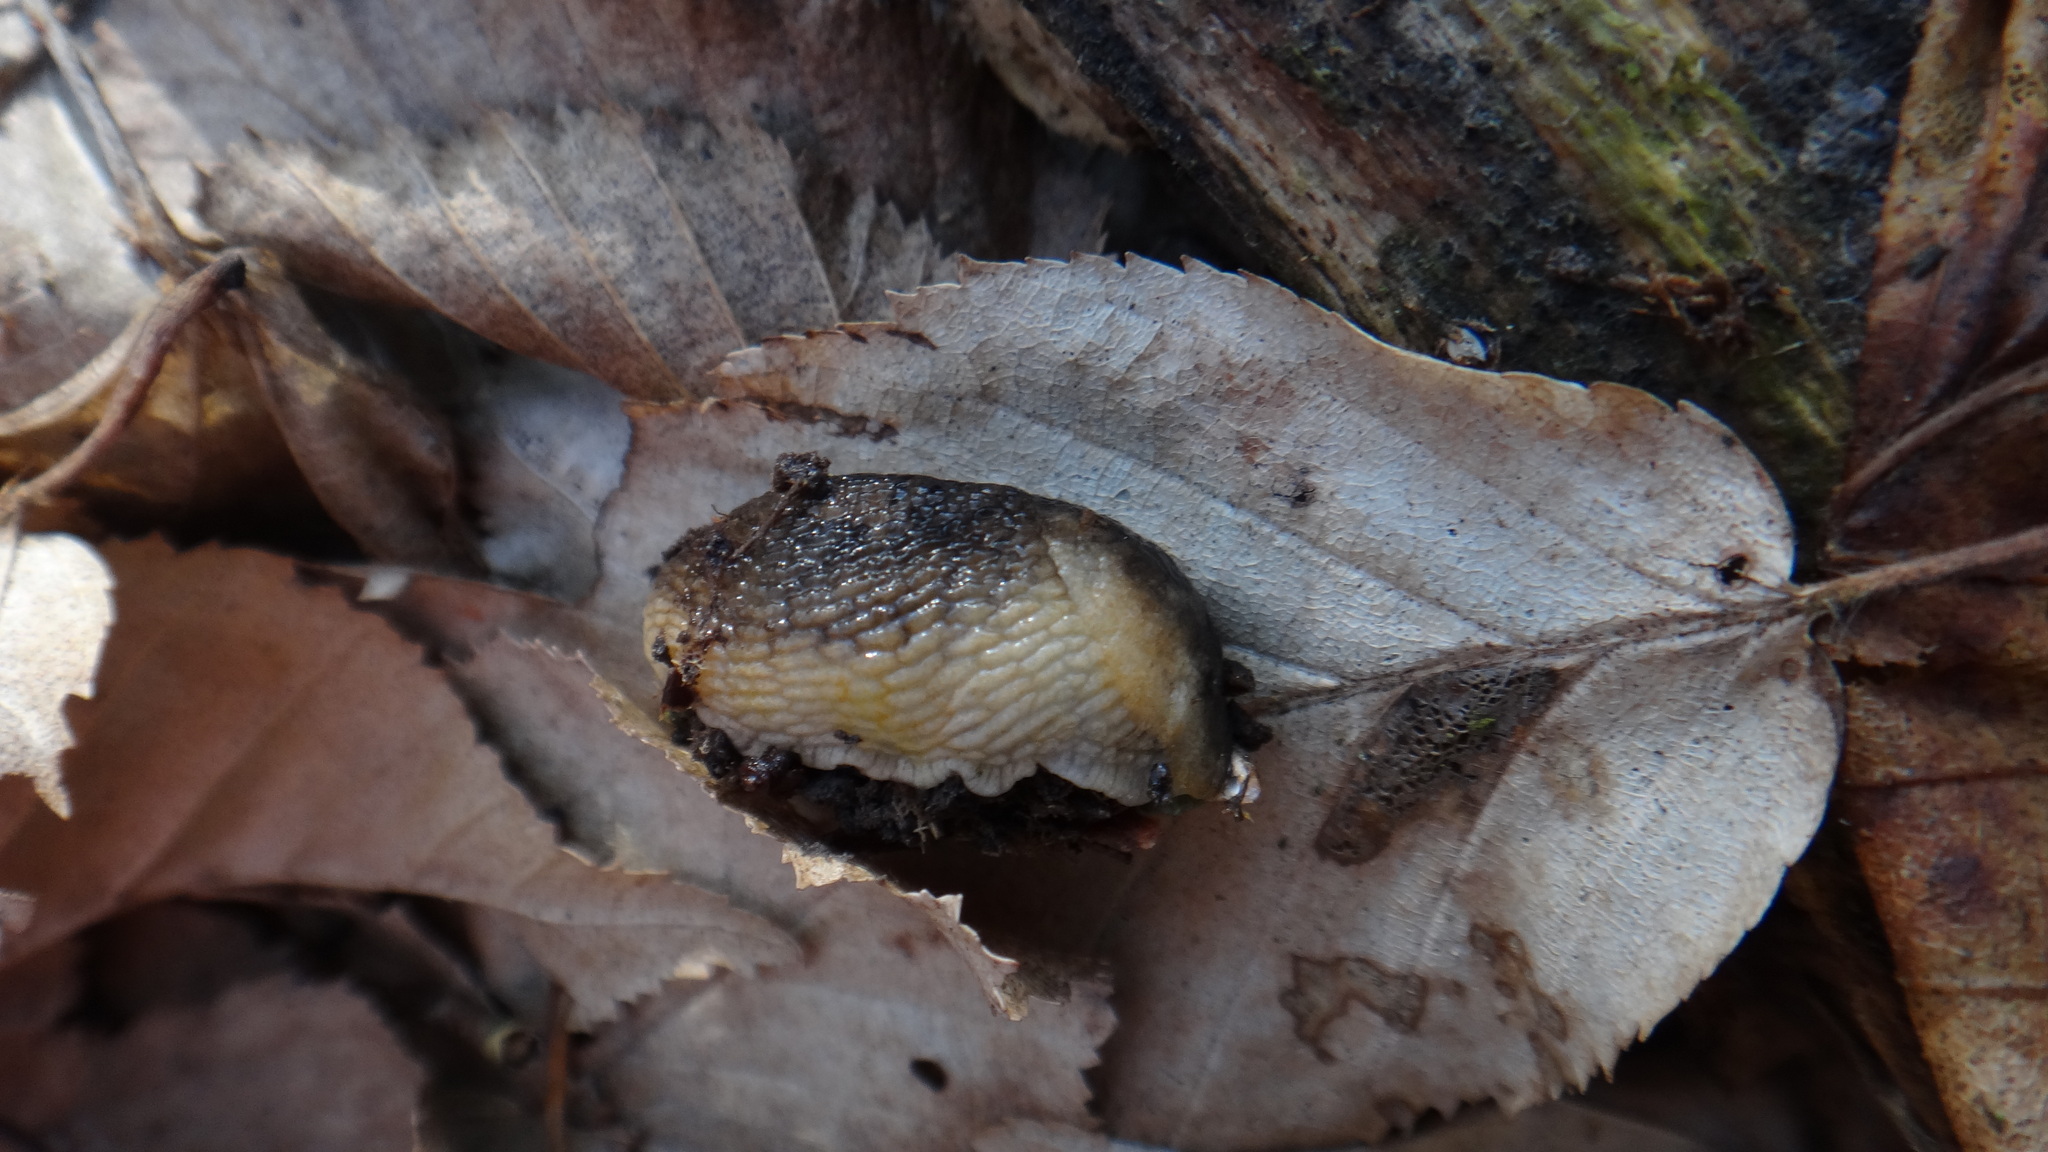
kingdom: Animalia
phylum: Mollusca
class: Gastropoda
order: Stylommatophora
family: Arionidae
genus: Arion
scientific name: Arion fuscus
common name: Northern dusky slug
